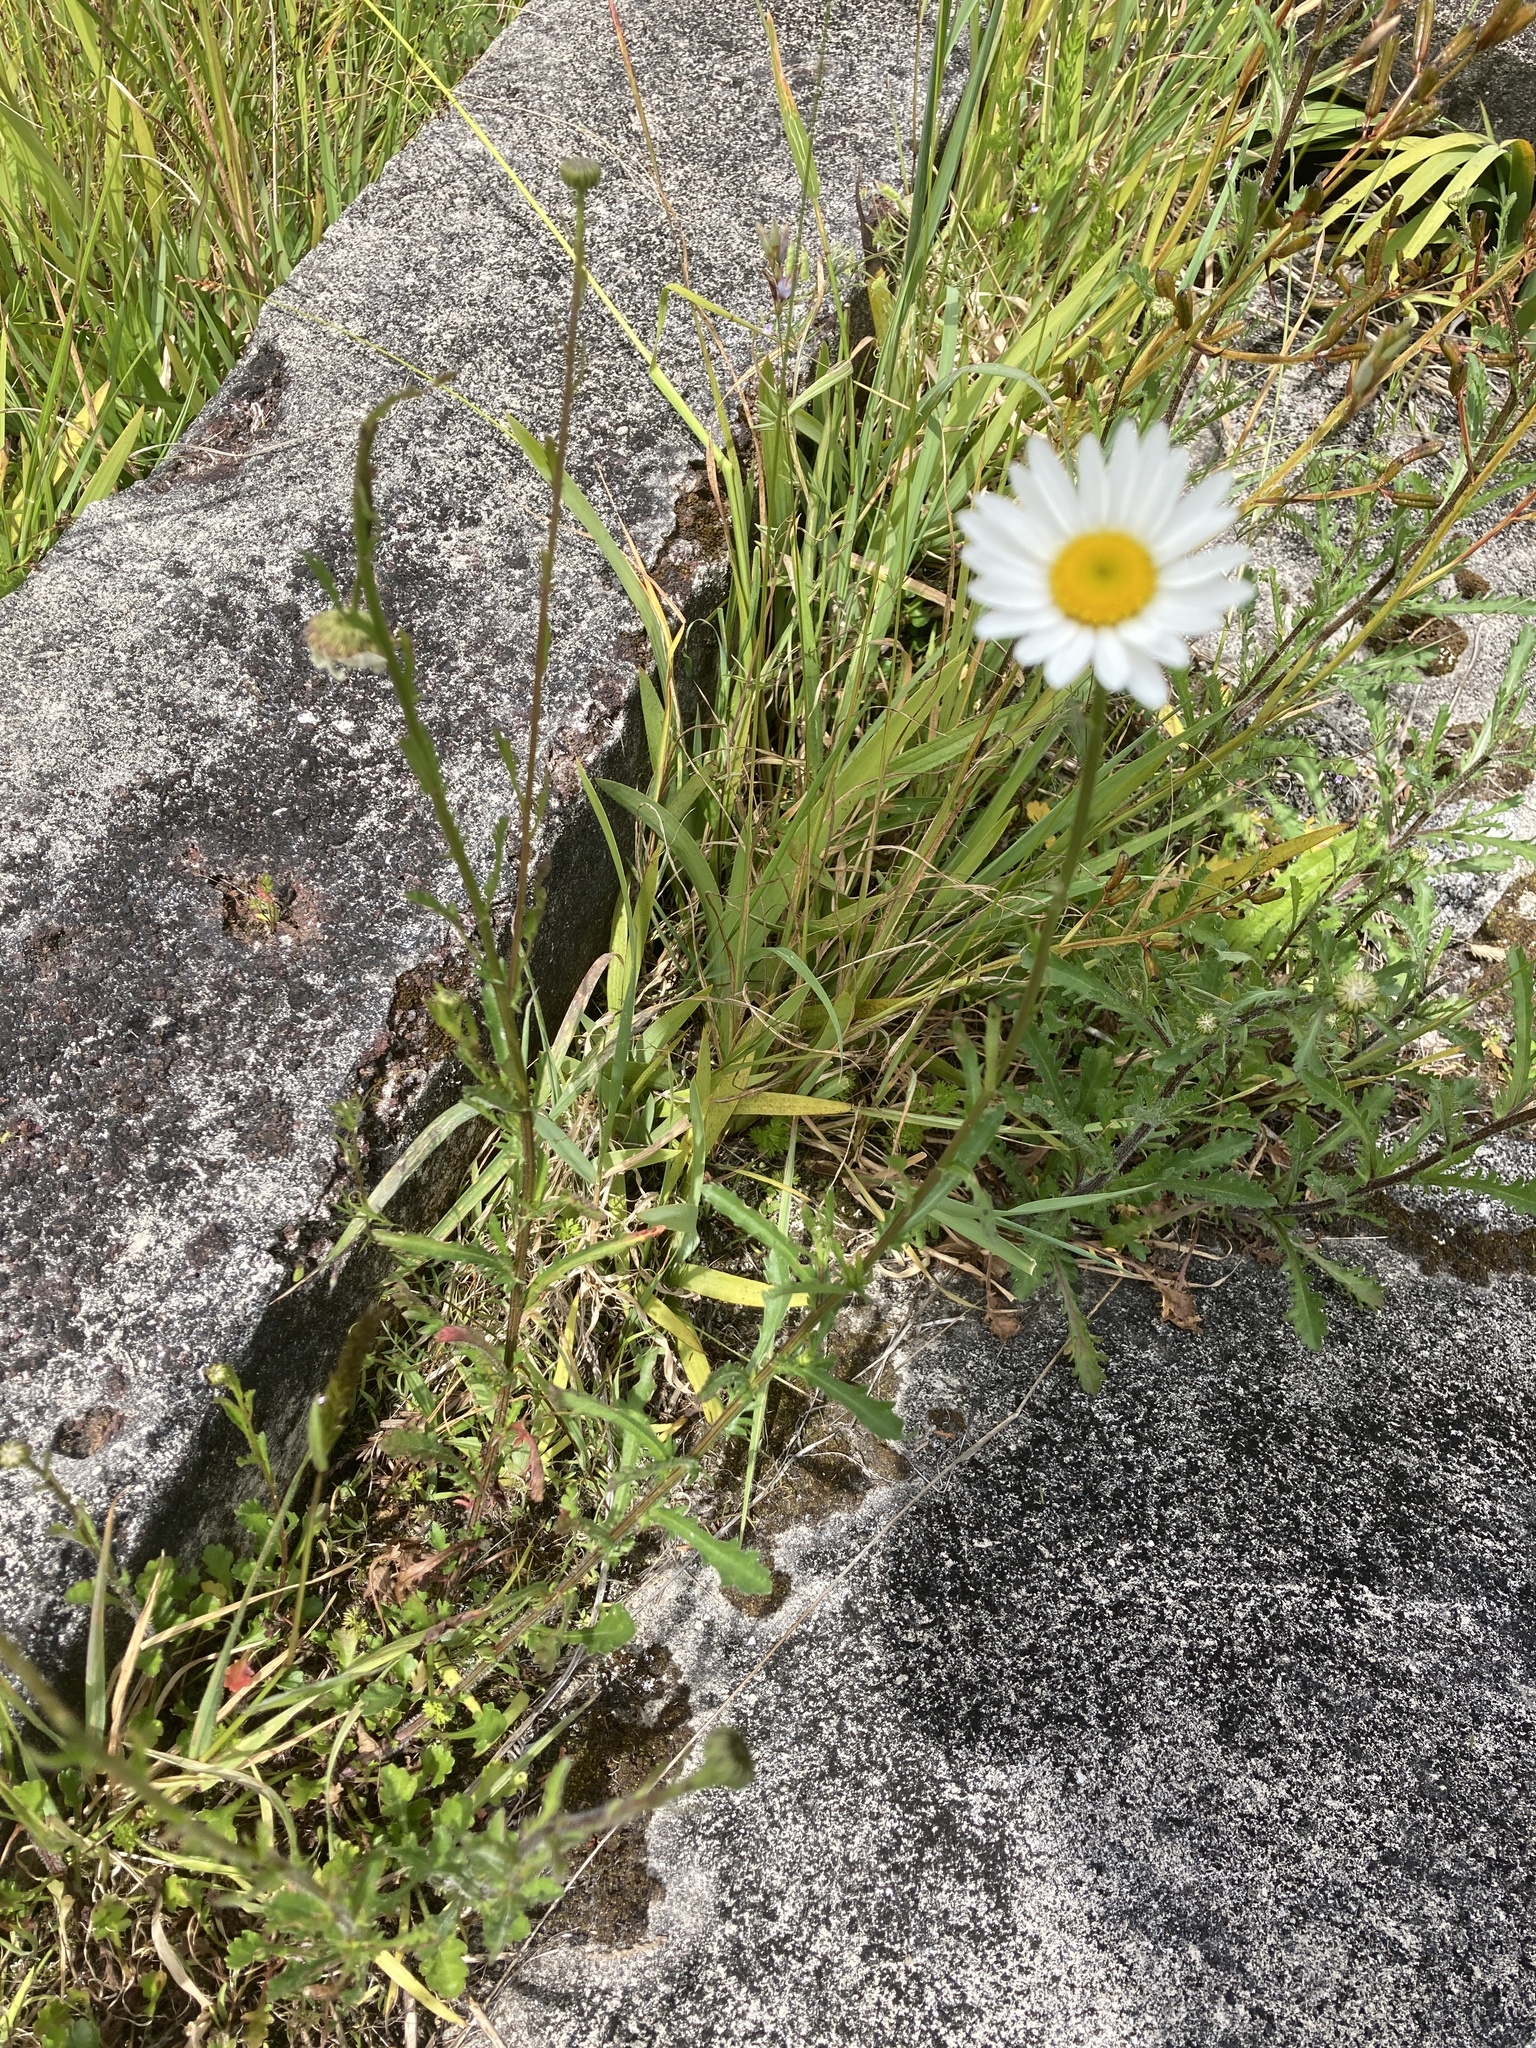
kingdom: Plantae
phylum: Tracheophyta
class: Magnoliopsida
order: Asterales
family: Asteraceae
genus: Leucanthemum
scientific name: Leucanthemum vulgare
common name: Oxeye daisy
